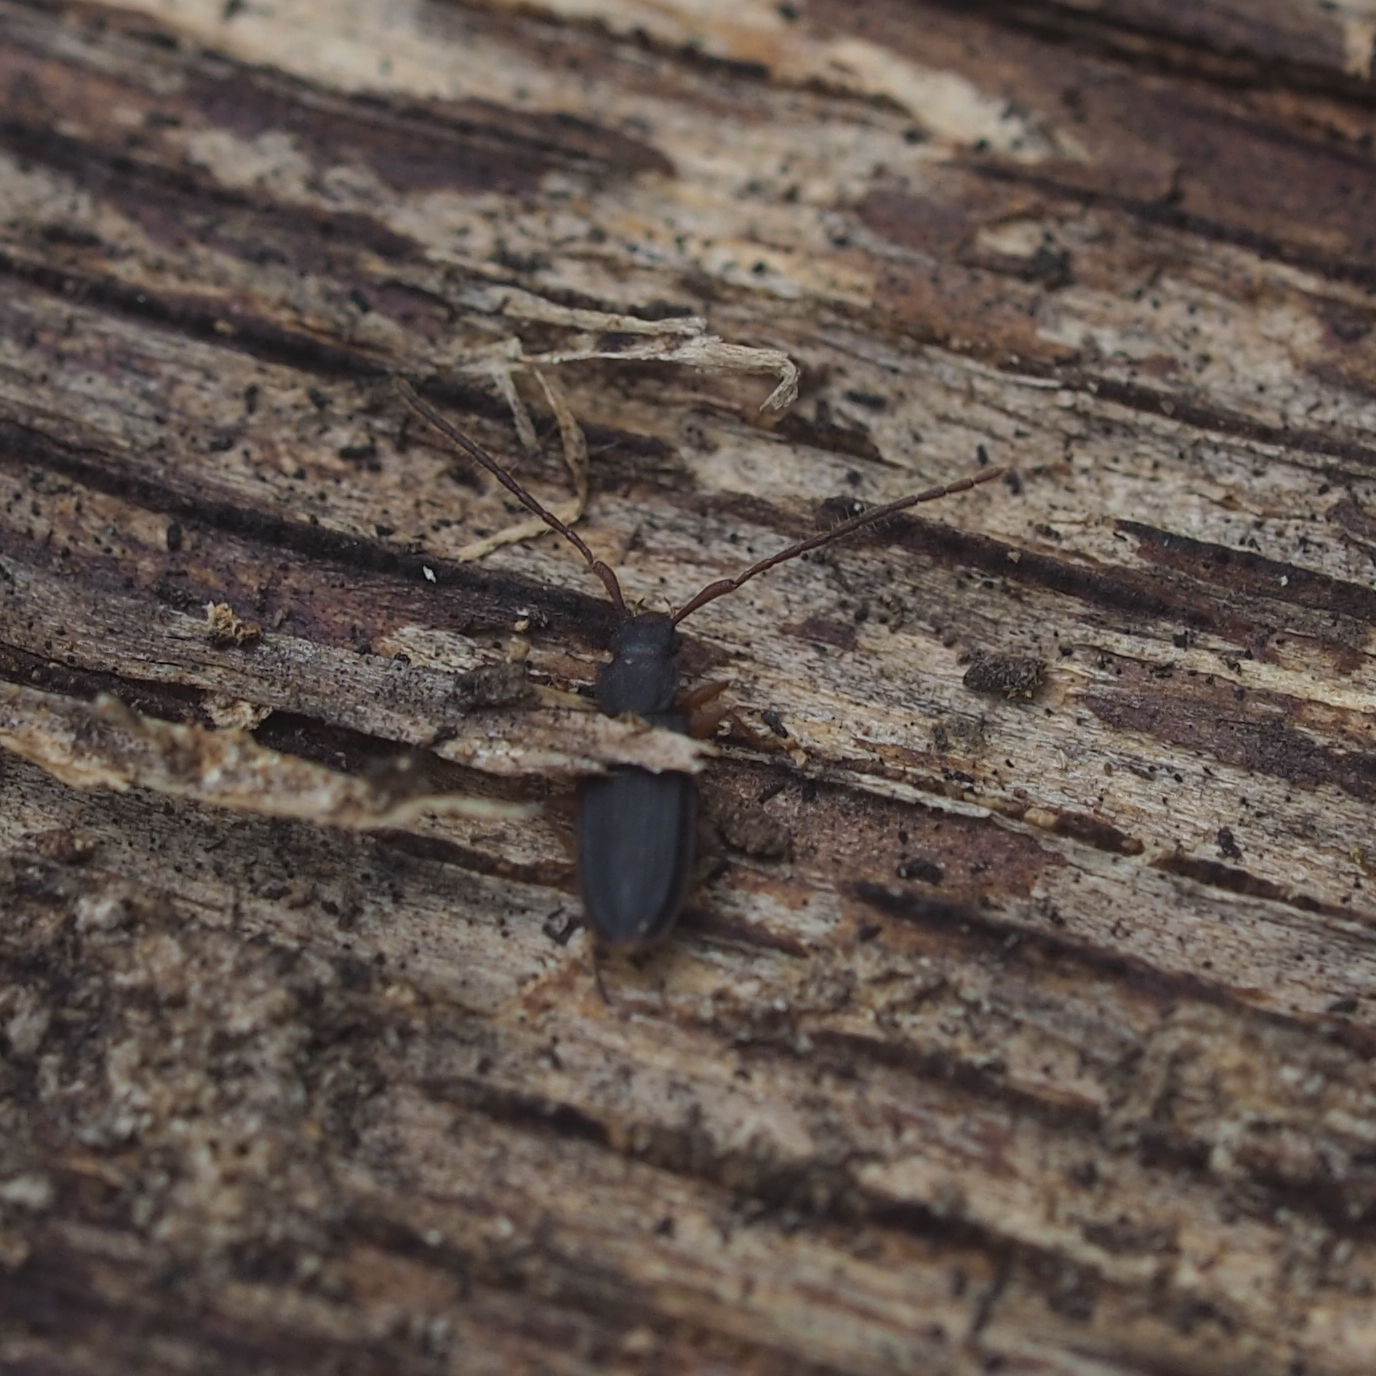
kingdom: Animalia
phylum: Arthropoda
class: Insecta
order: Coleoptera
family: Silvanidae
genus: Uleiota
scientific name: Uleiota planatus
